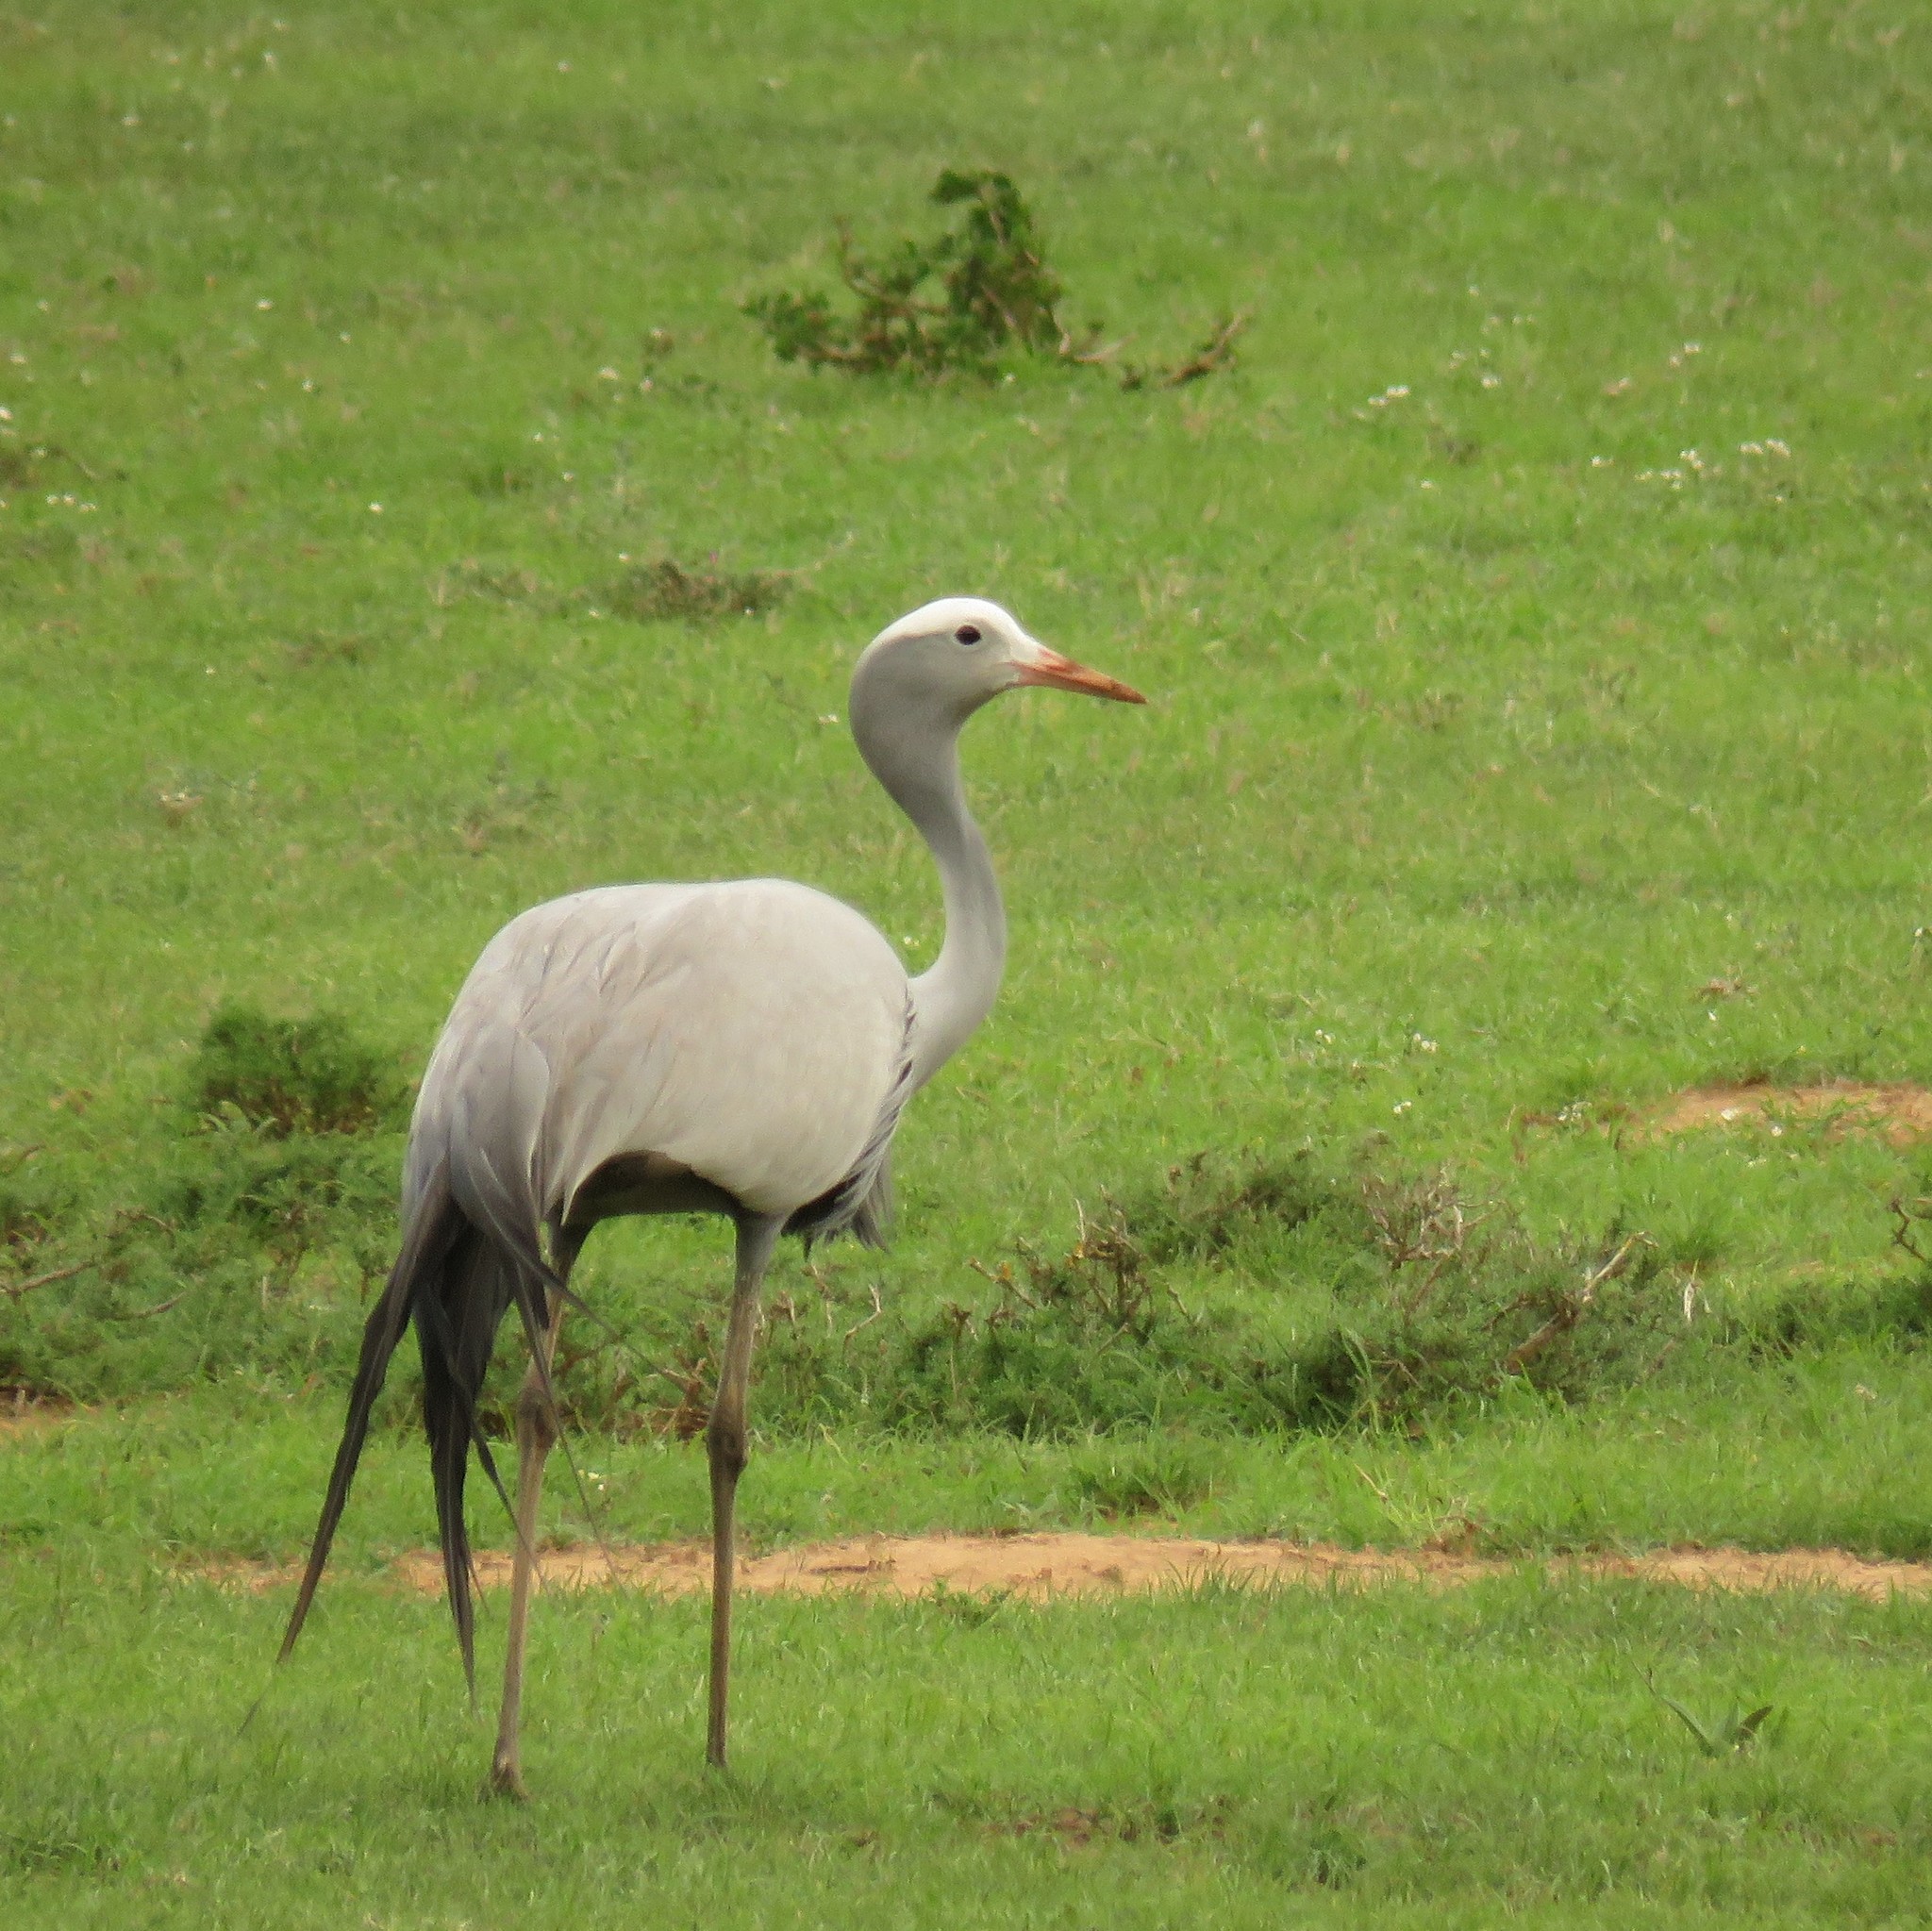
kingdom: Animalia
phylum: Chordata
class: Aves
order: Gruiformes
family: Gruidae
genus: Anthropoides
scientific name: Anthropoides paradiseus
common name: Blue crane
